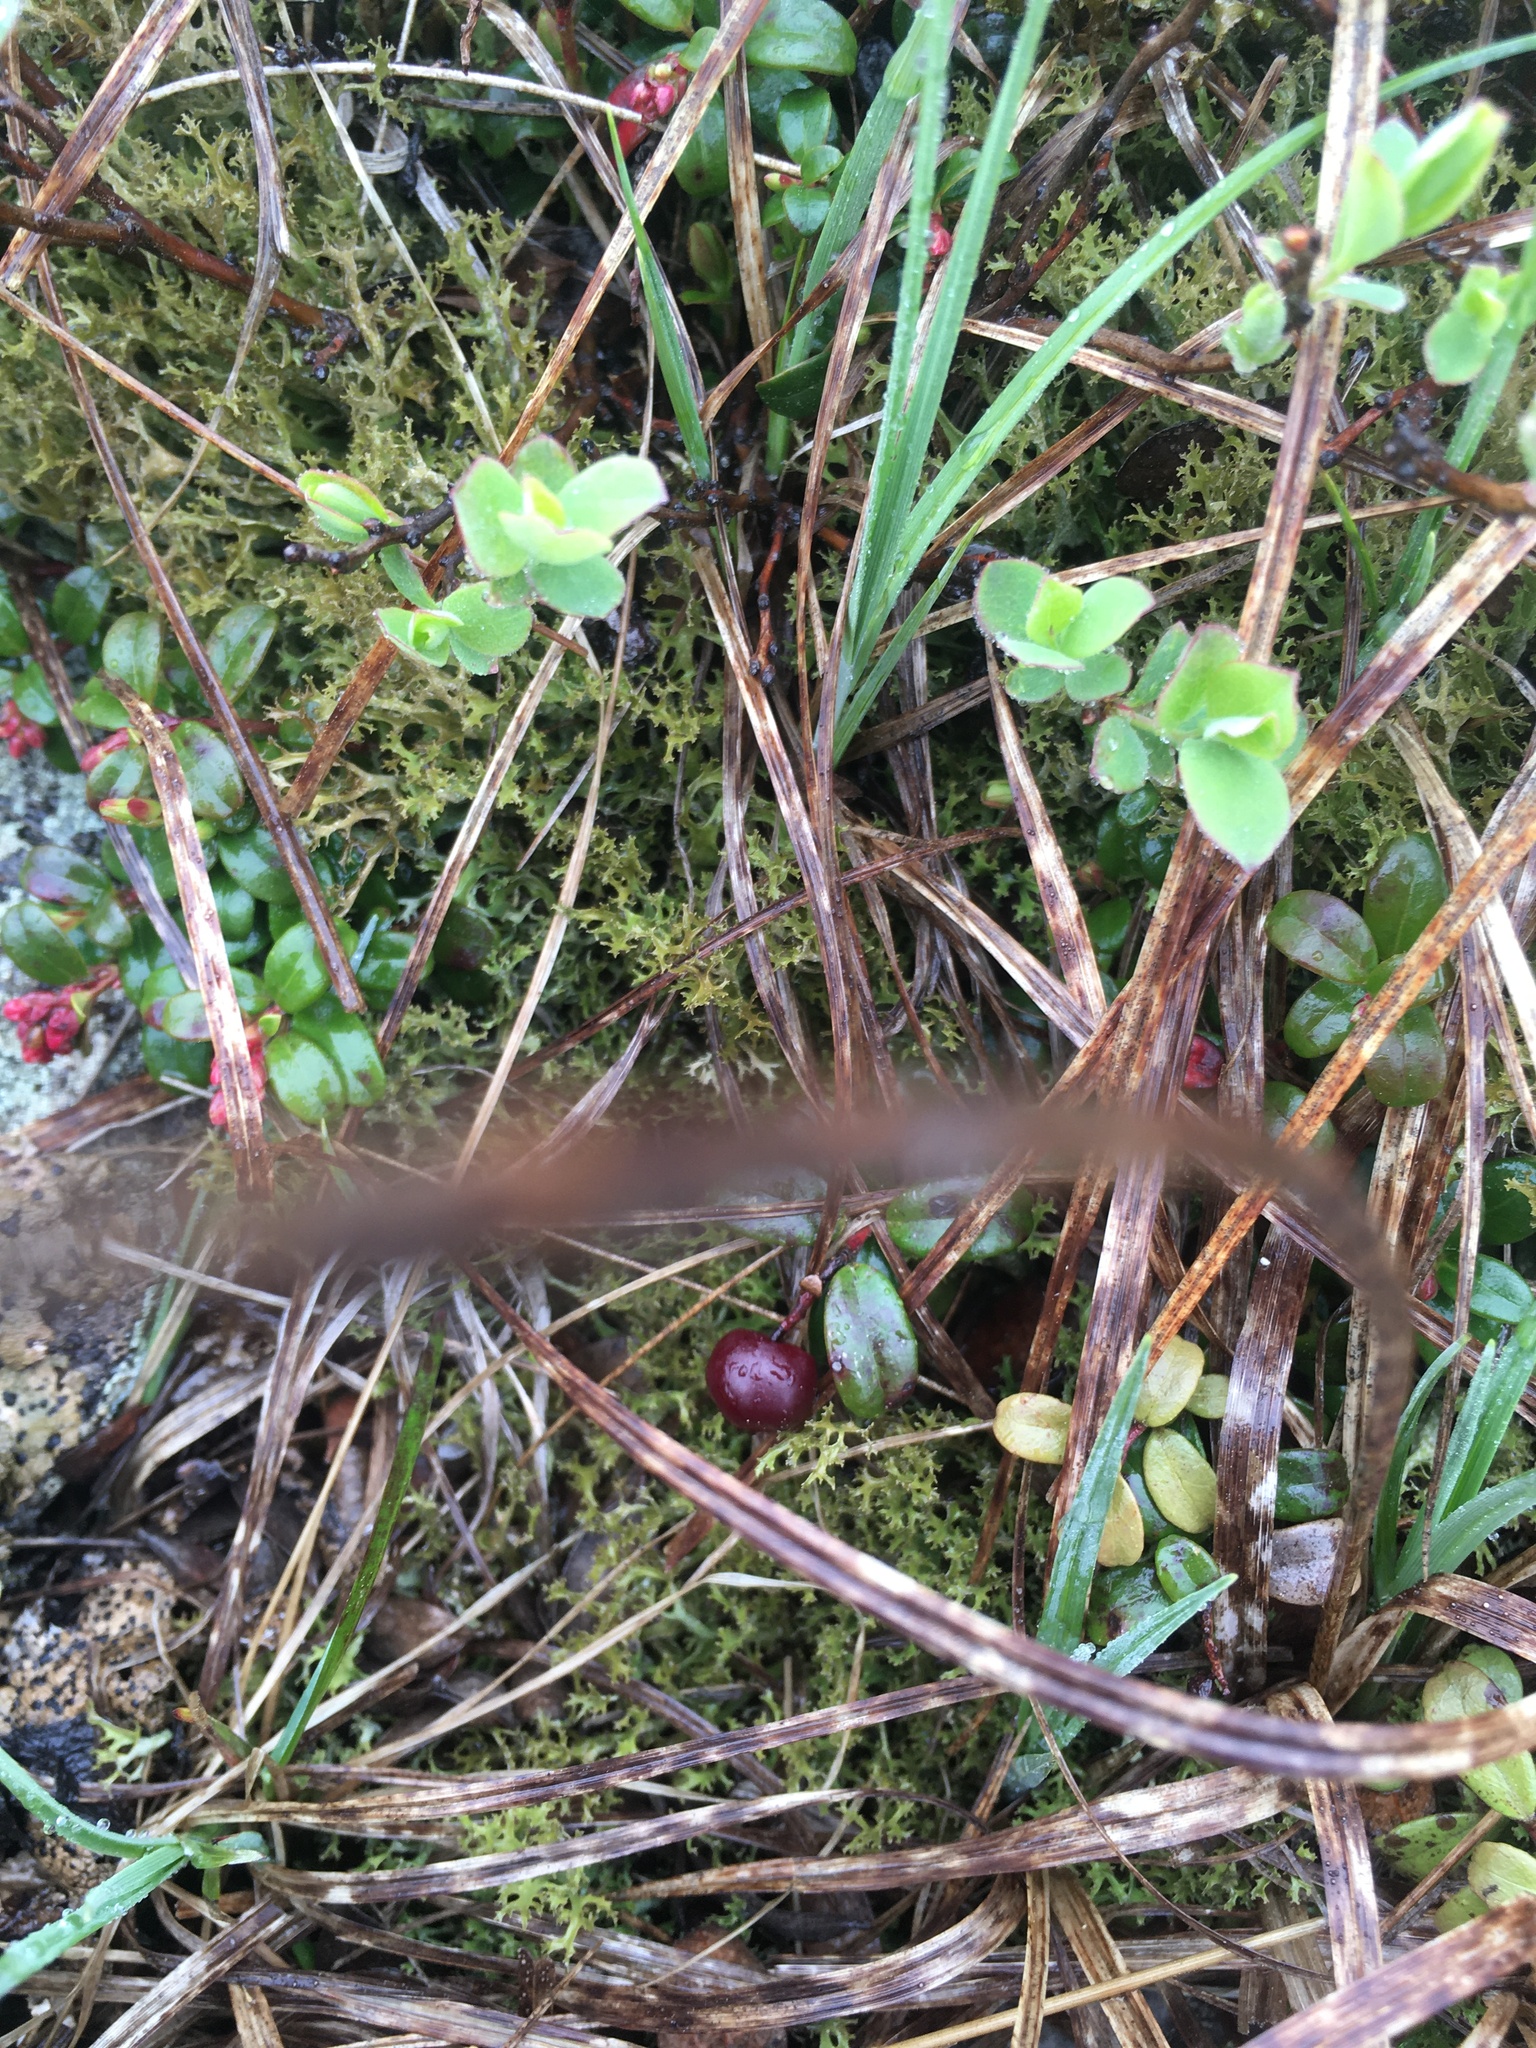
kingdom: Plantae
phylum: Tracheophyta
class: Magnoliopsida
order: Ericales
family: Ericaceae
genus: Vaccinium
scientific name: Vaccinium vitis-idaea
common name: Cowberry
